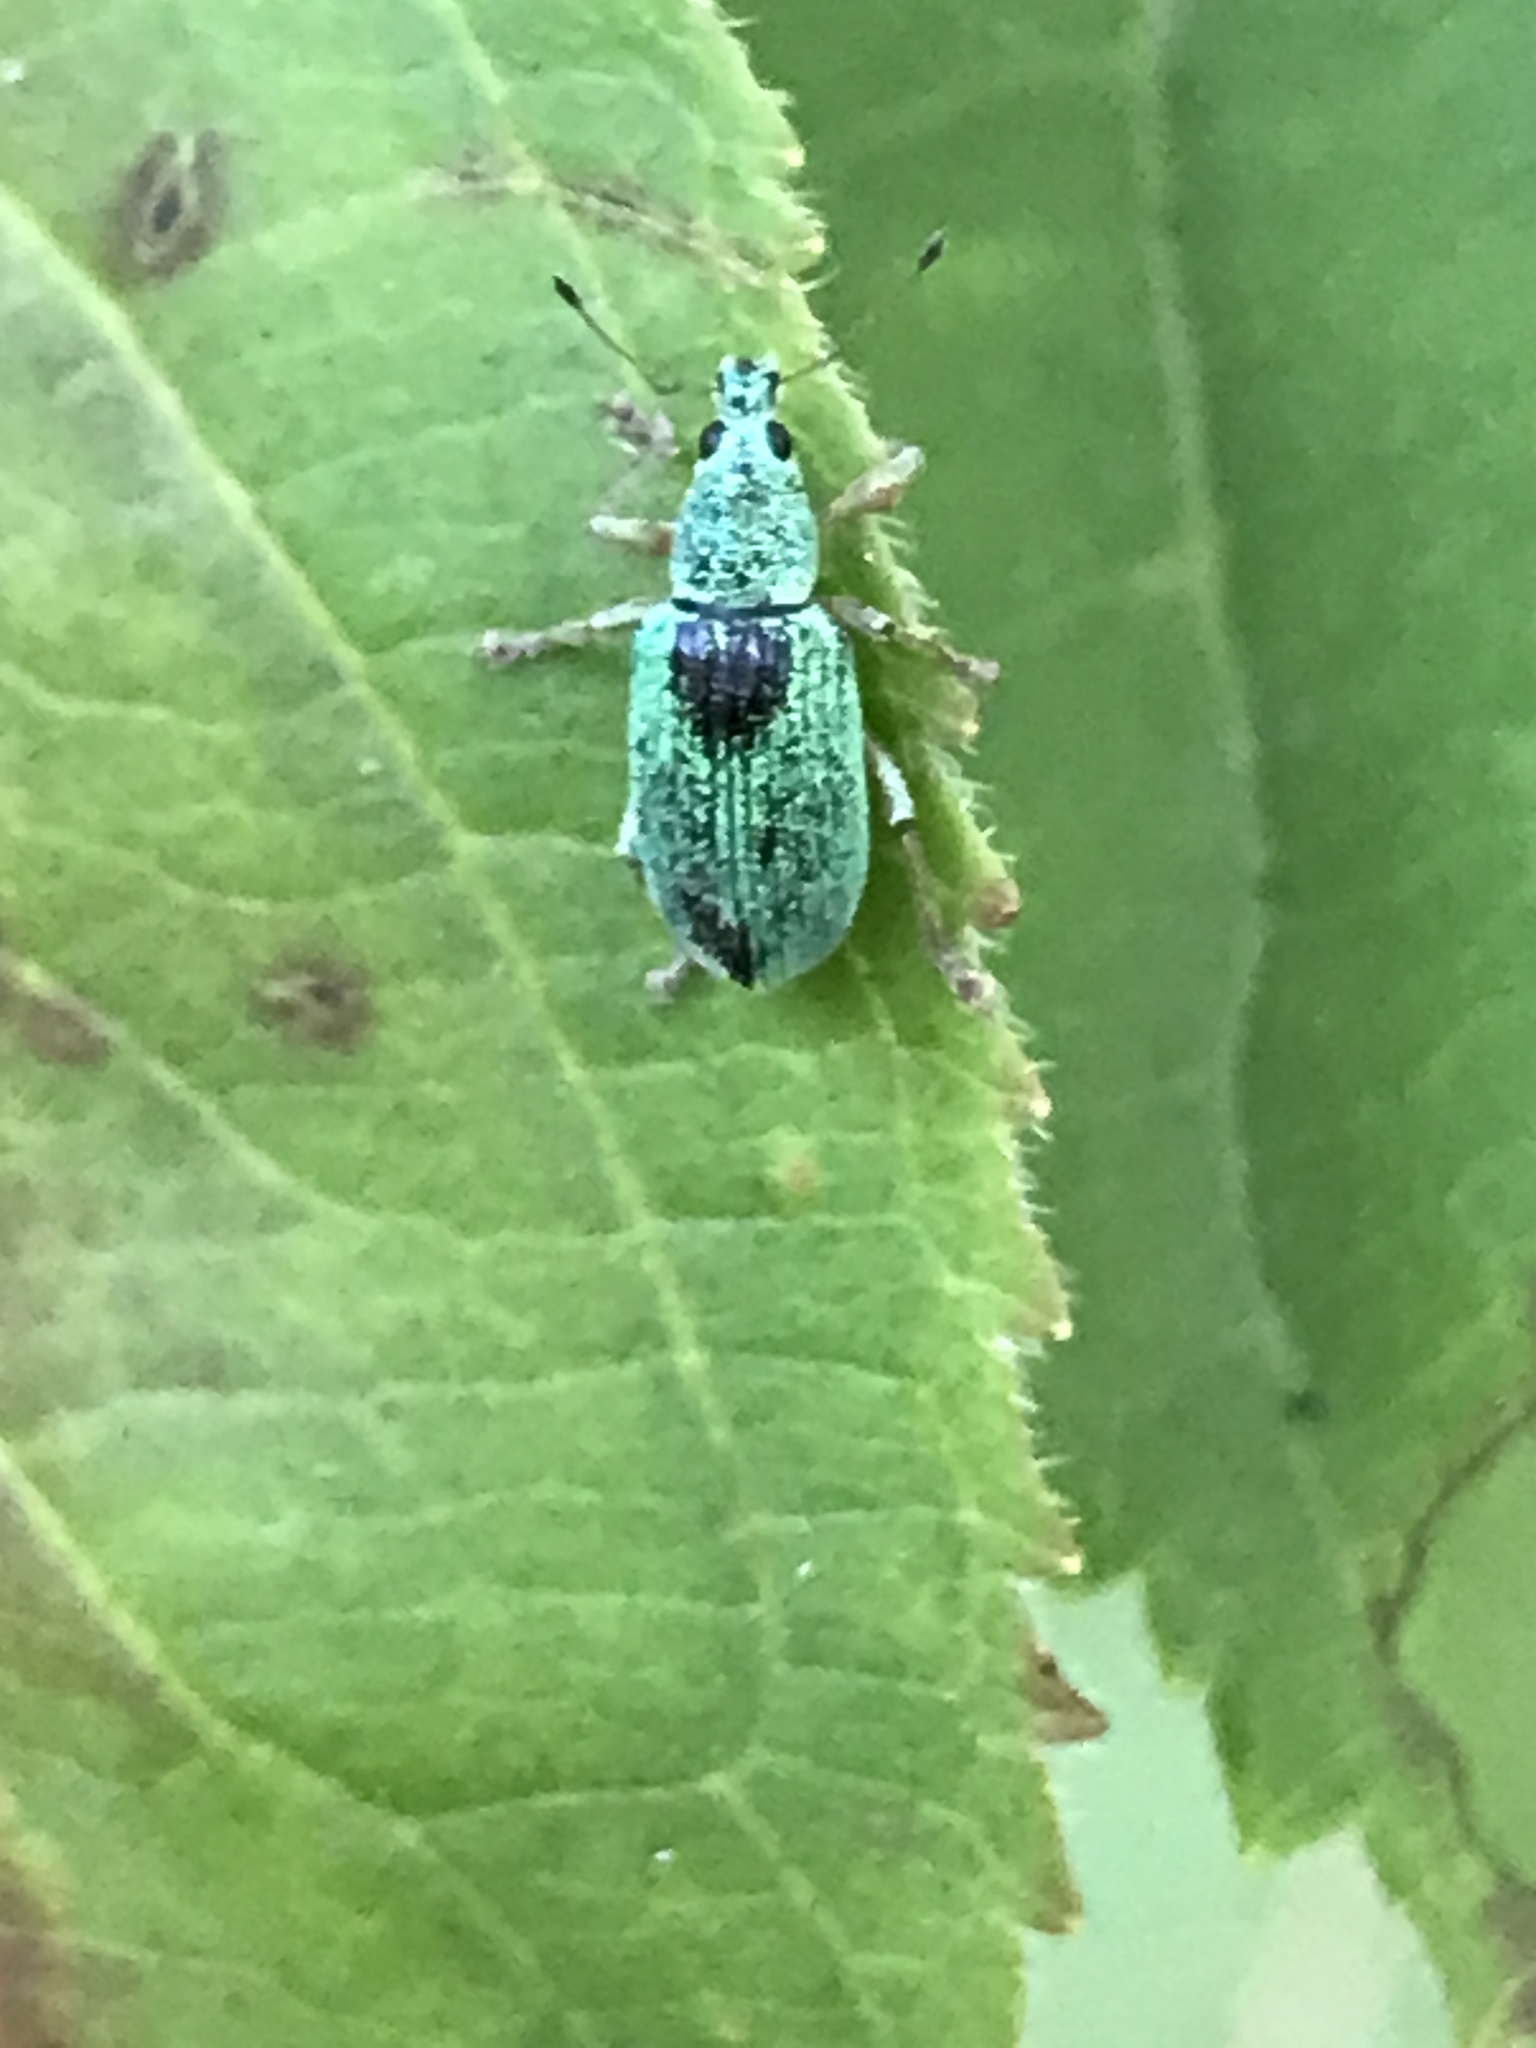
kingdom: Animalia
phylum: Arthropoda
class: Insecta
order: Coleoptera
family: Curculionidae
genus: Polydrusus
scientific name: Polydrusus formosus
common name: Weevil
